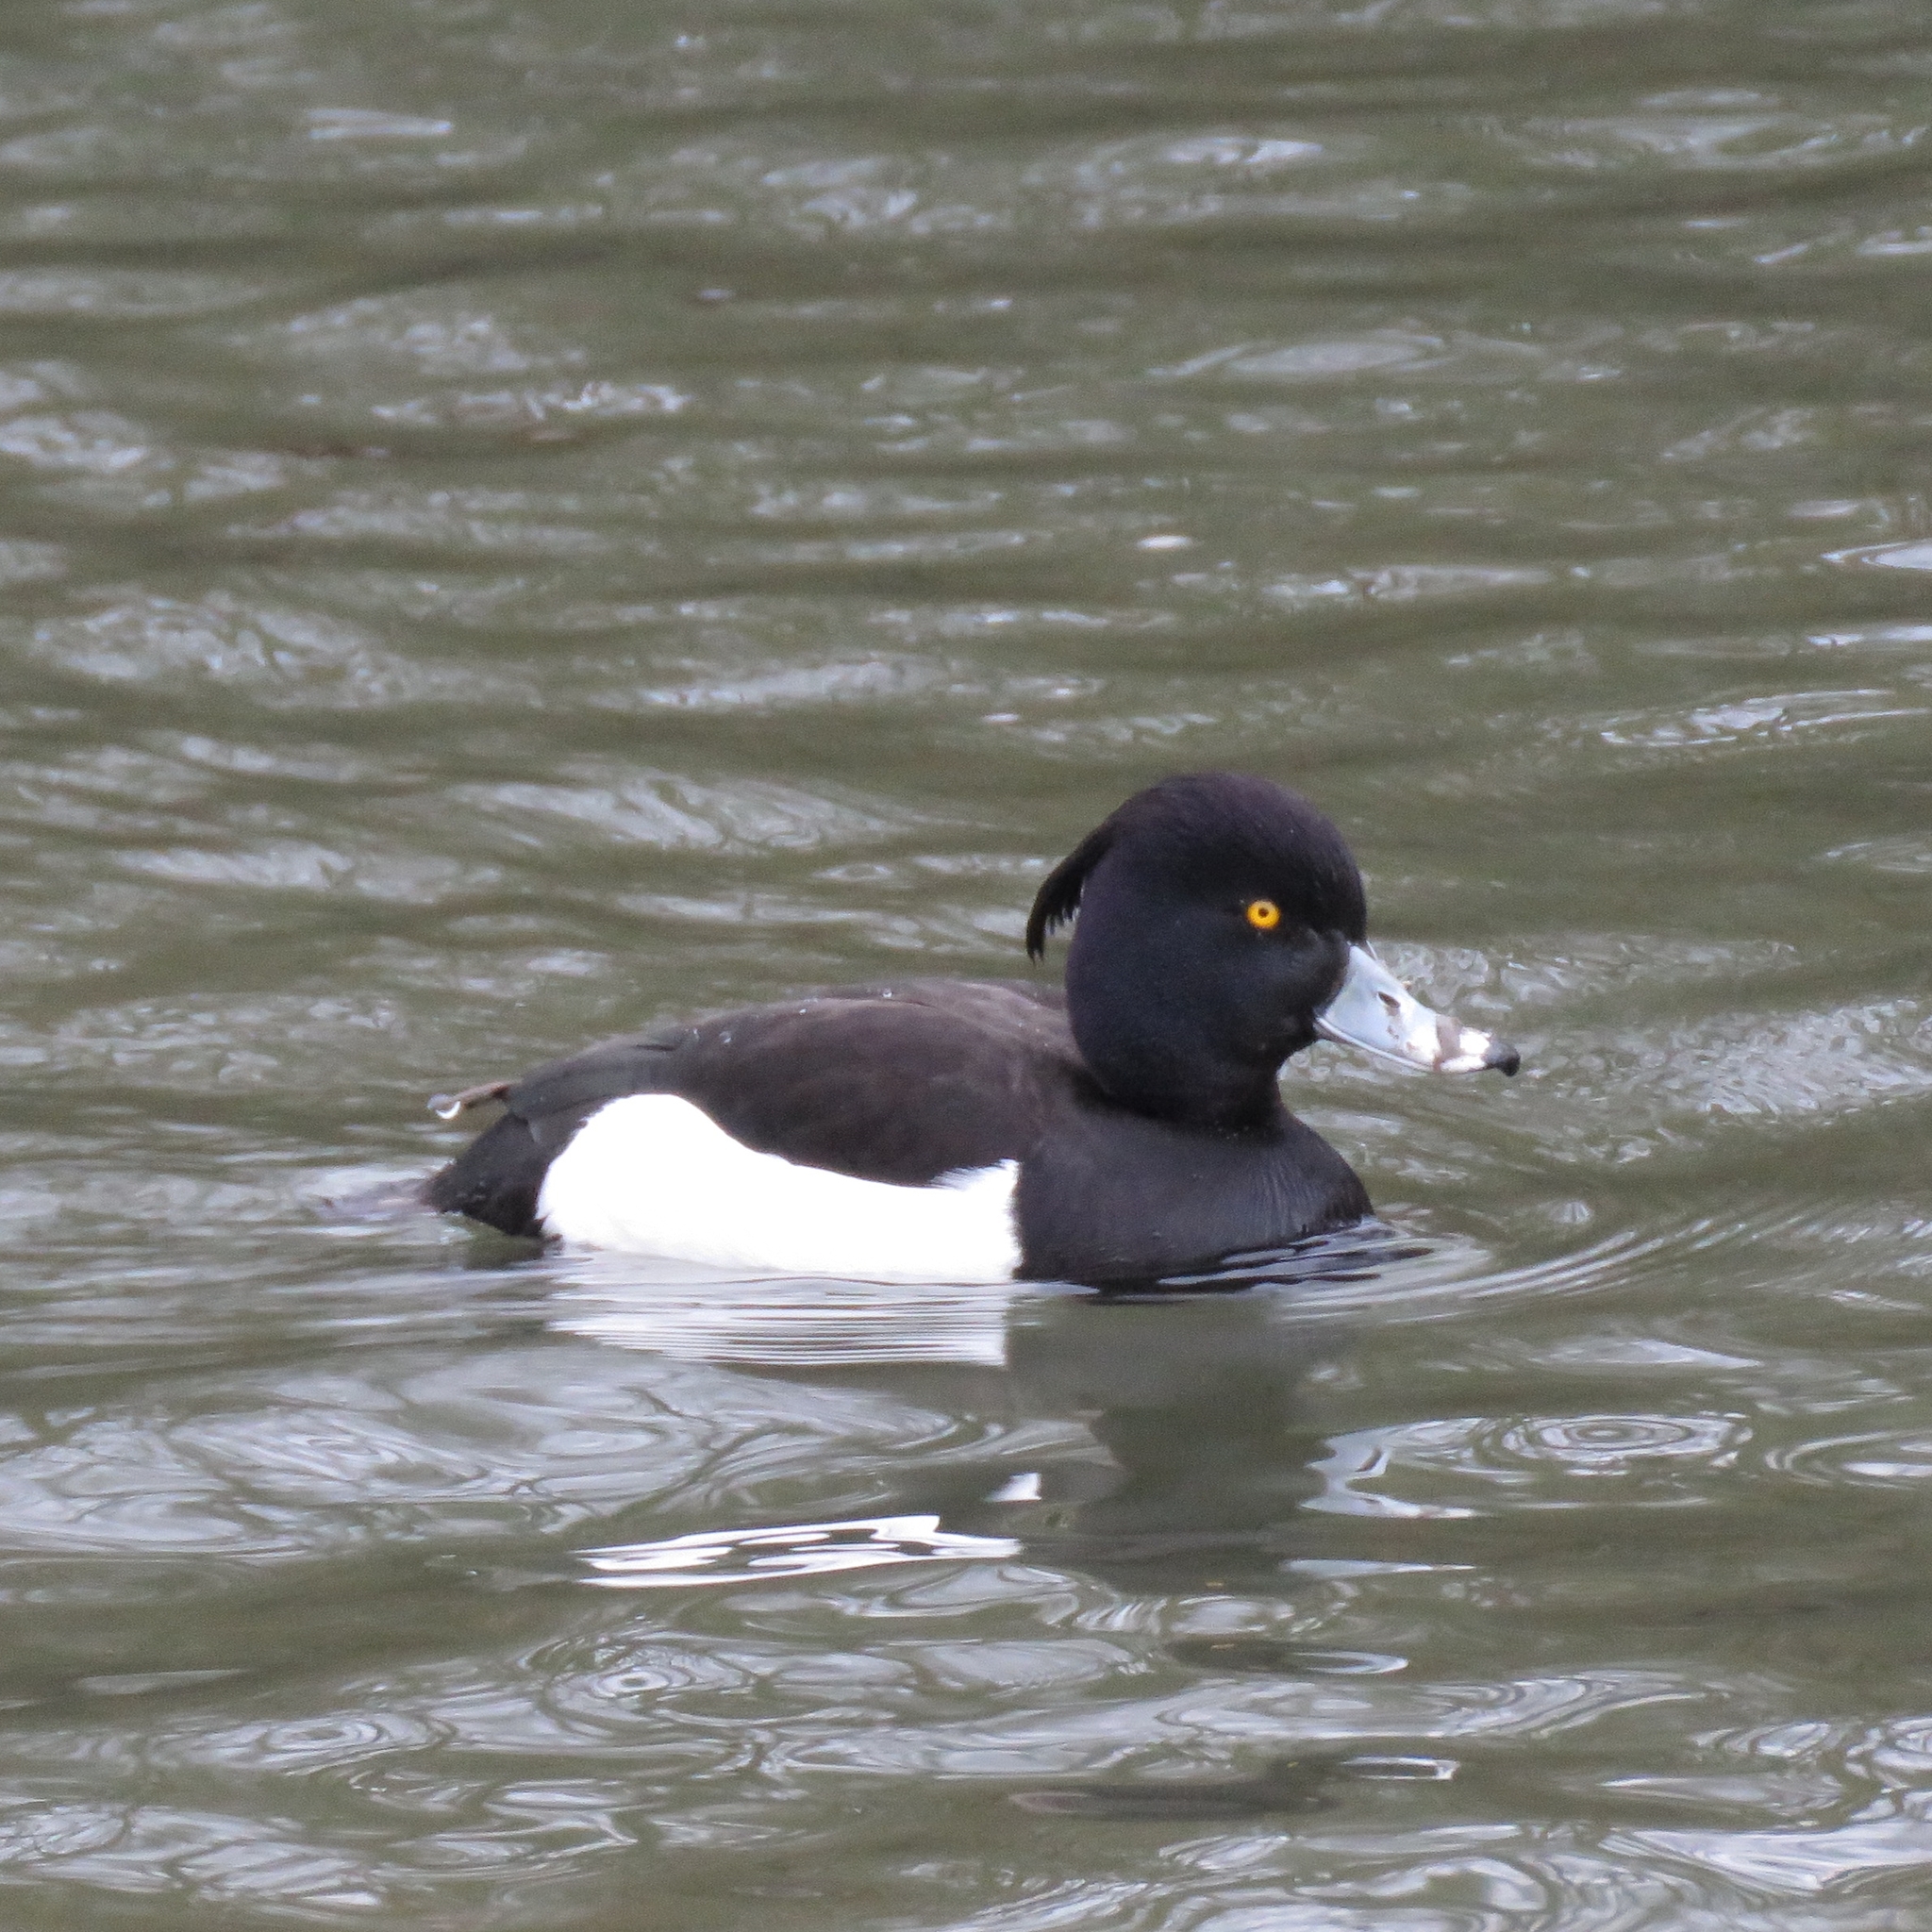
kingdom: Animalia
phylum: Chordata
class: Aves
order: Anseriformes
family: Anatidae
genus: Aythya
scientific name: Aythya fuligula
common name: Tufted duck
